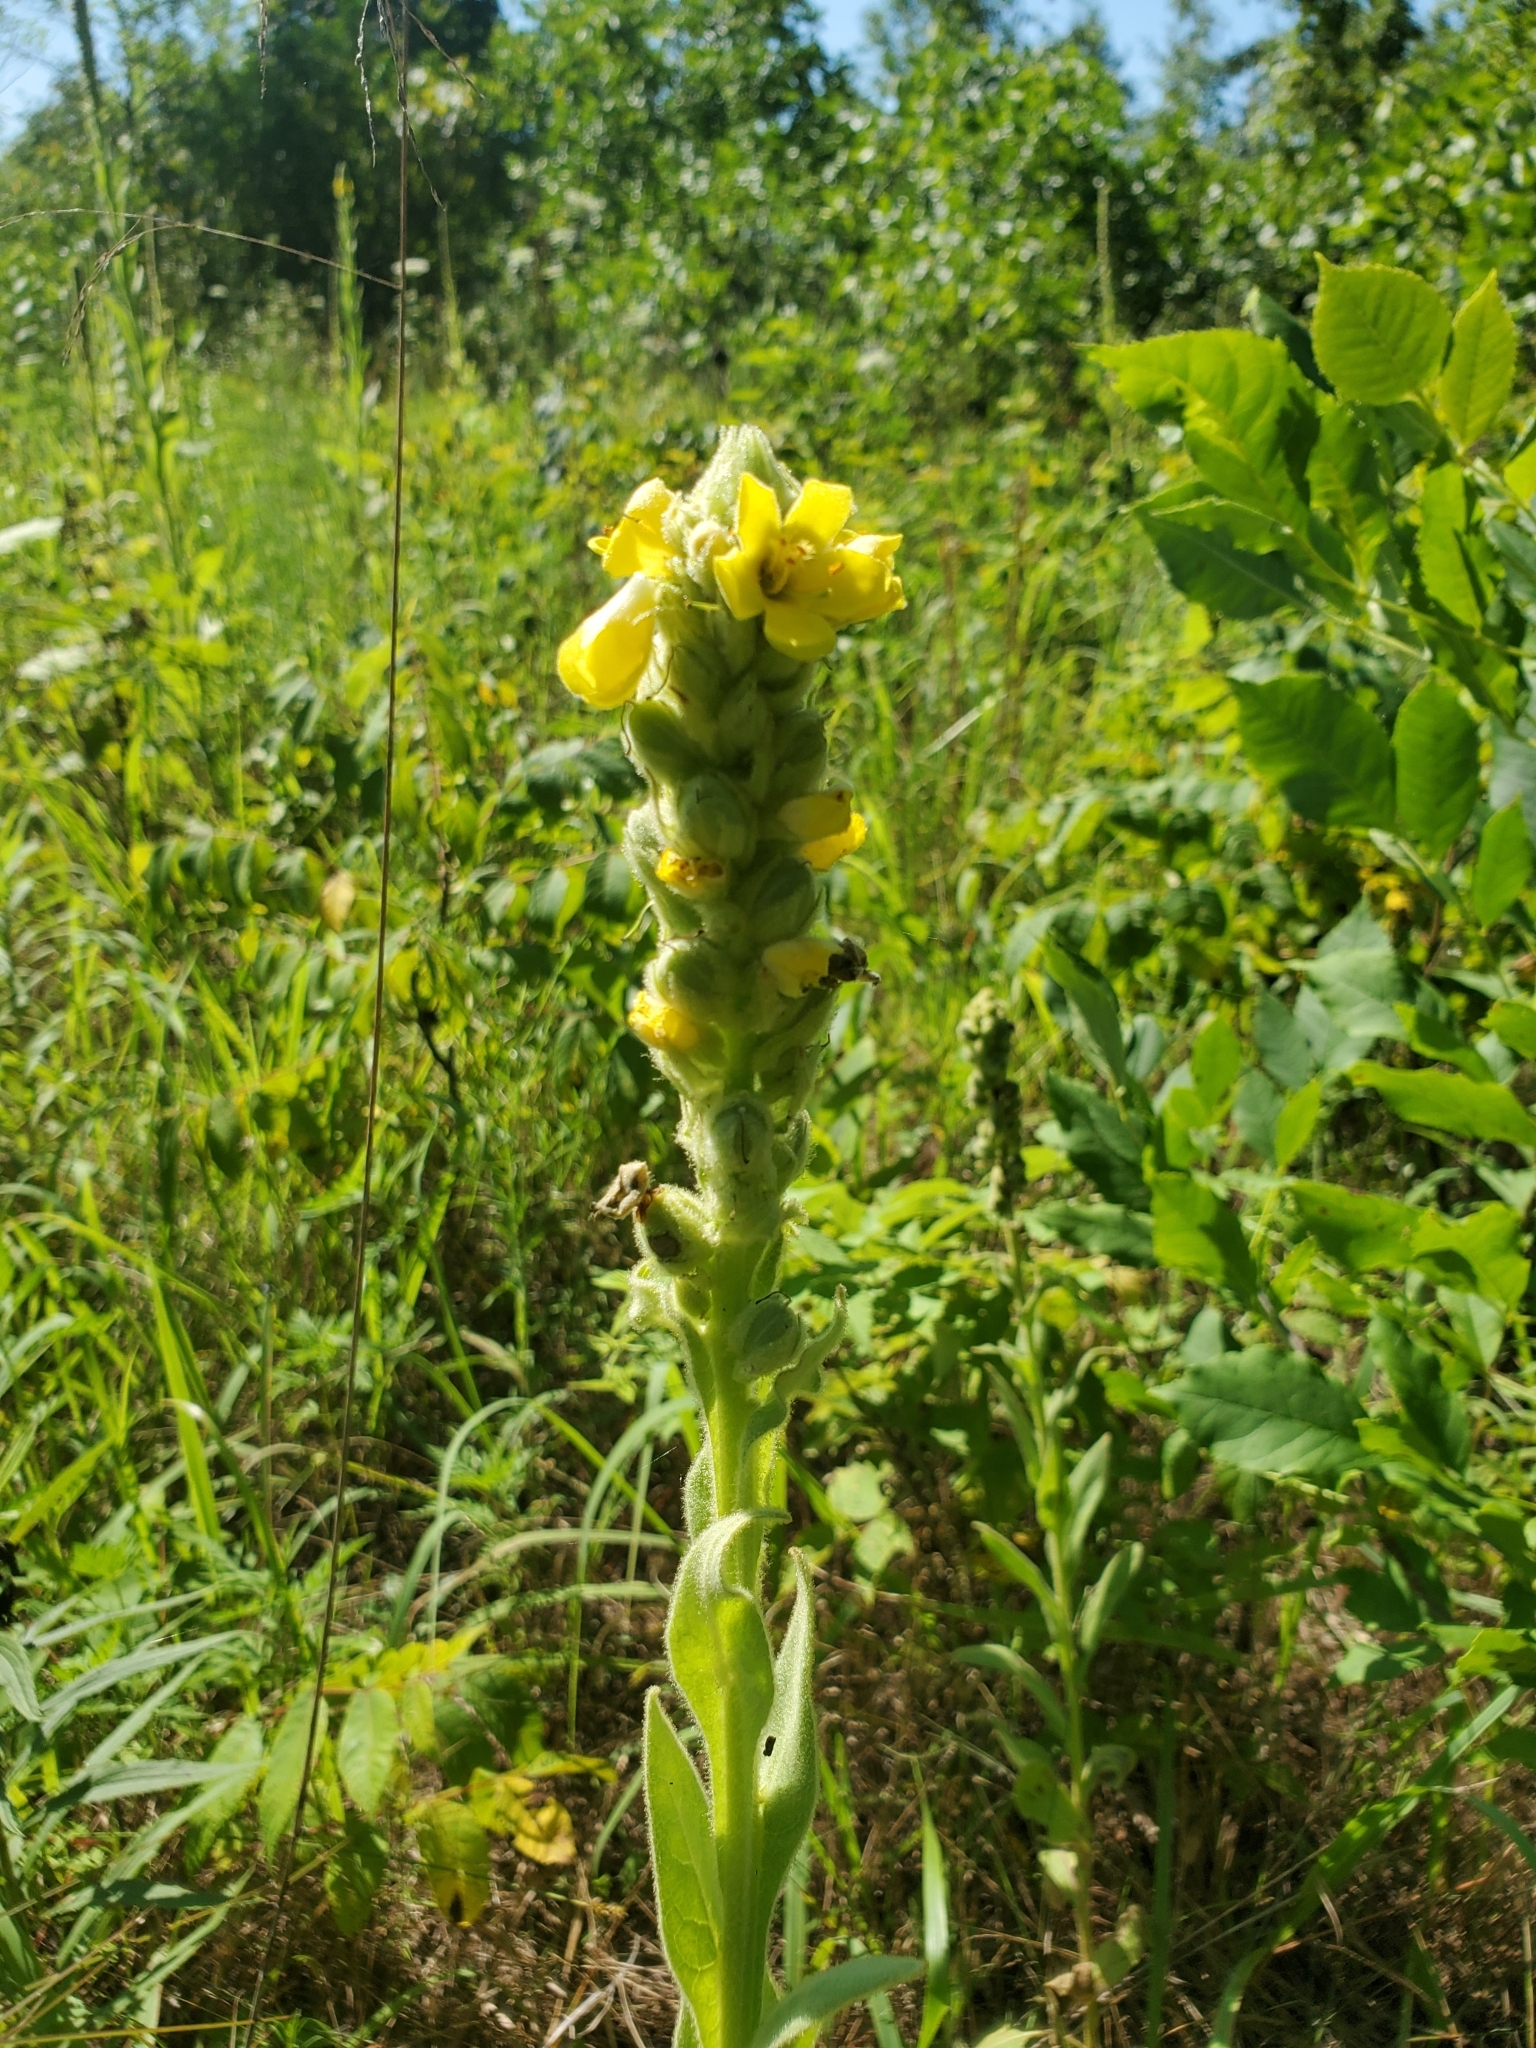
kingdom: Plantae
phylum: Tracheophyta
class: Magnoliopsida
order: Lamiales
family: Scrophulariaceae
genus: Verbascum
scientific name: Verbascum thapsus
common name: Common mullein
